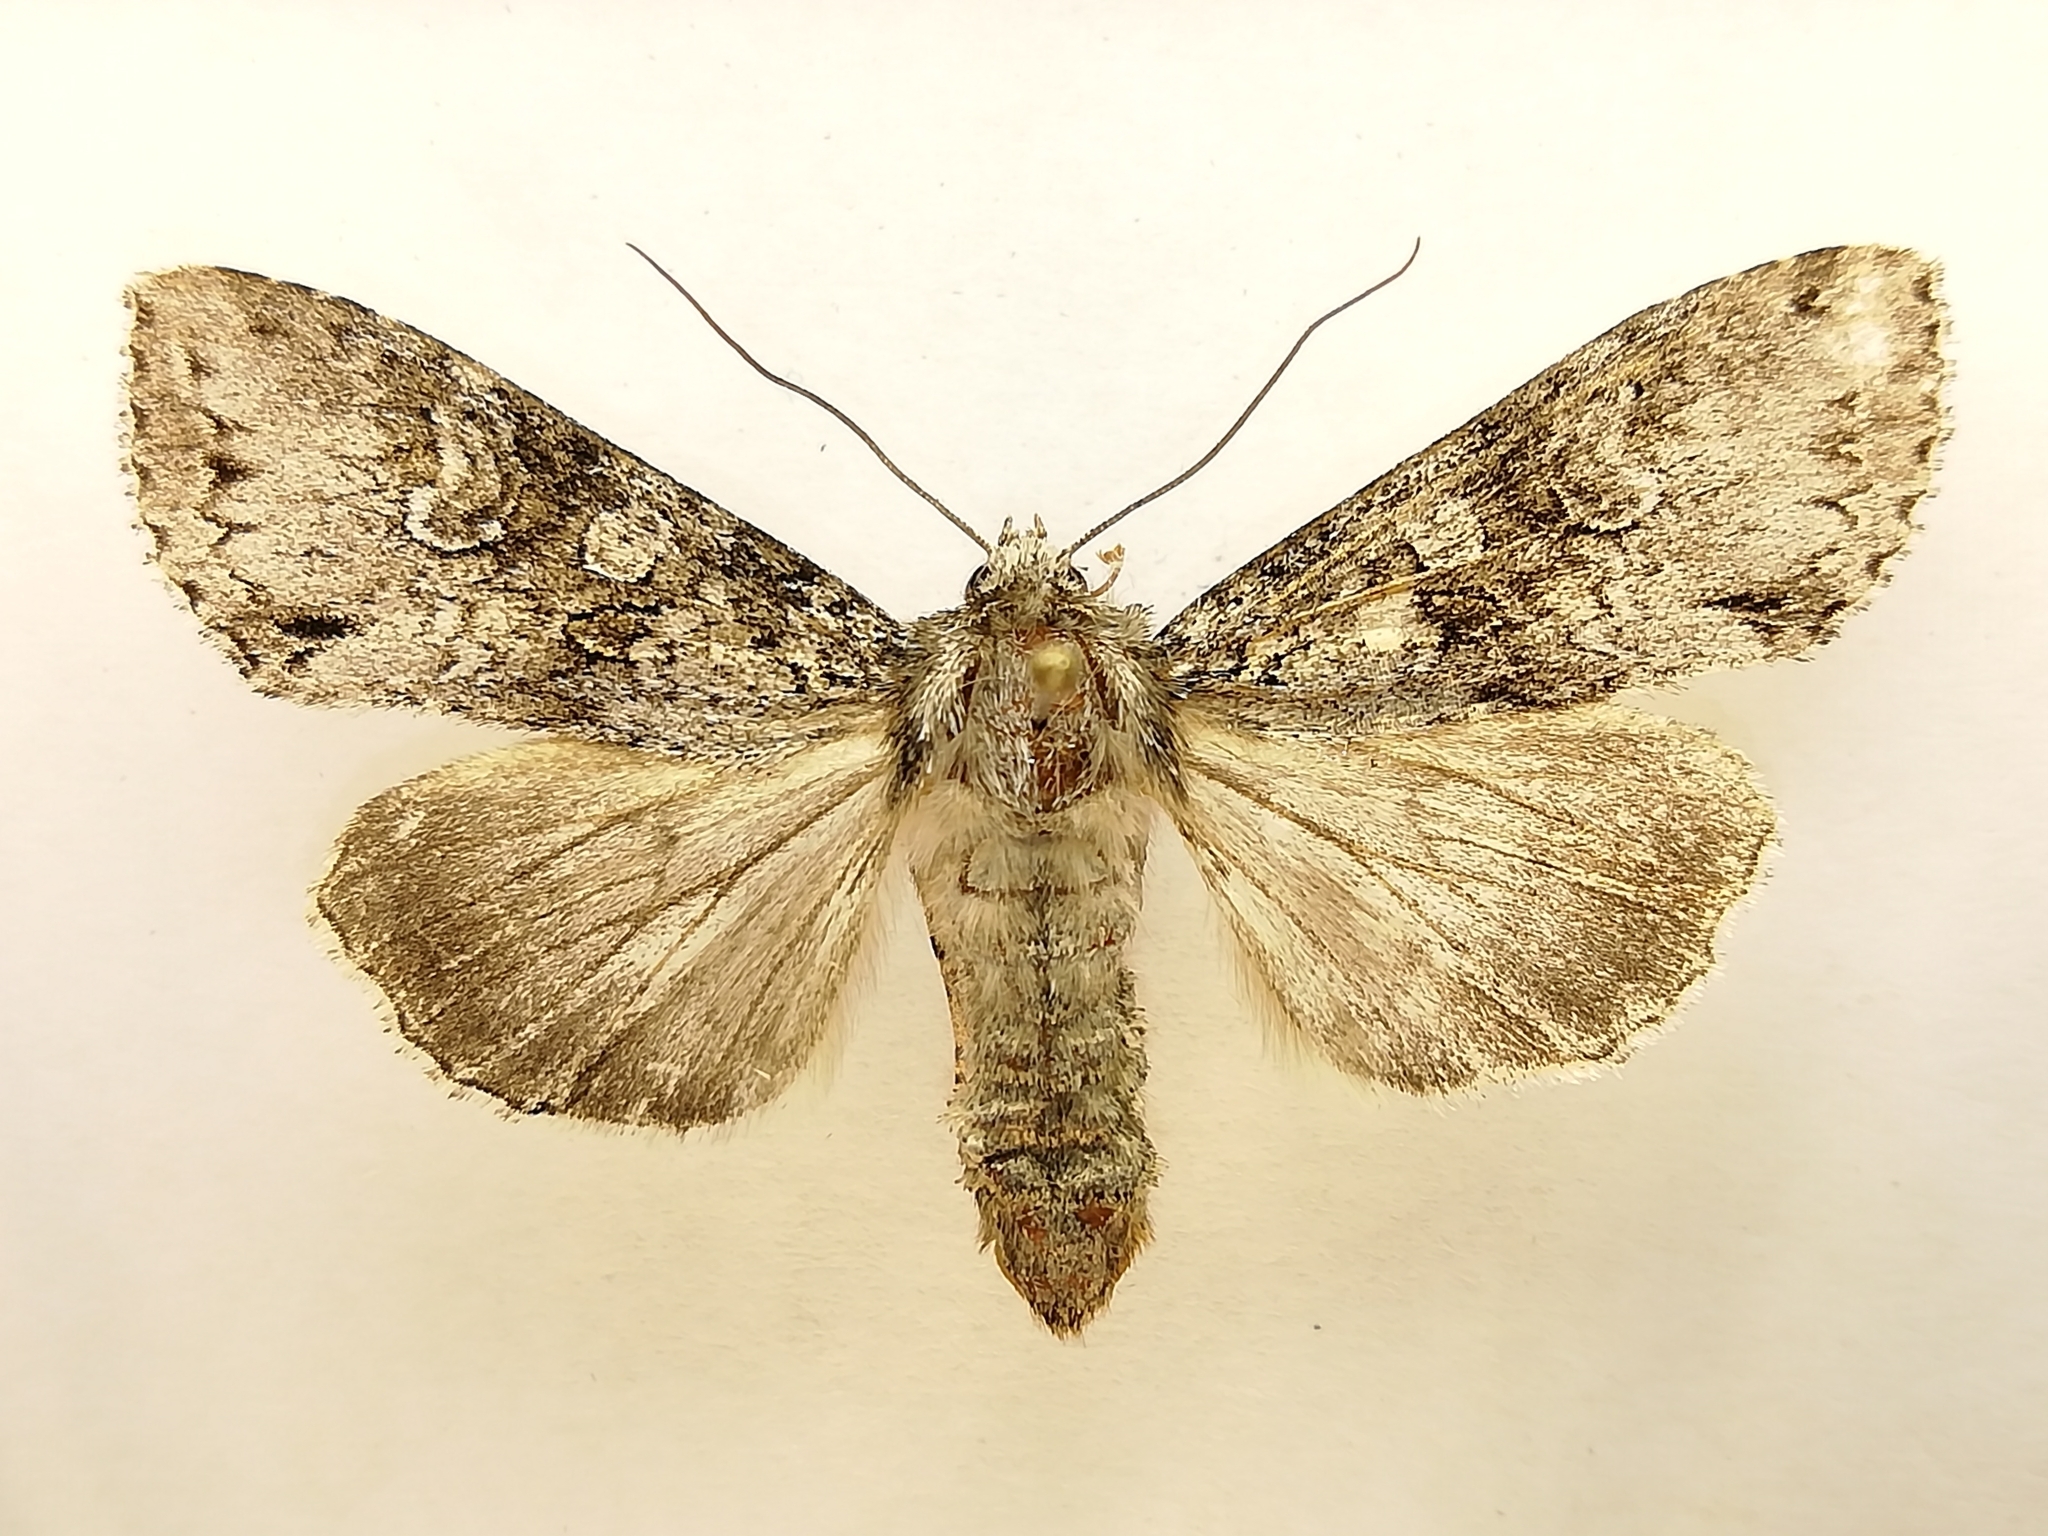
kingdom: Animalia
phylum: Arthropoda
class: Insecta
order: Lepidoptera
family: Noctuidae
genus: Eurois
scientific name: Eurois occulta
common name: Great brocade
